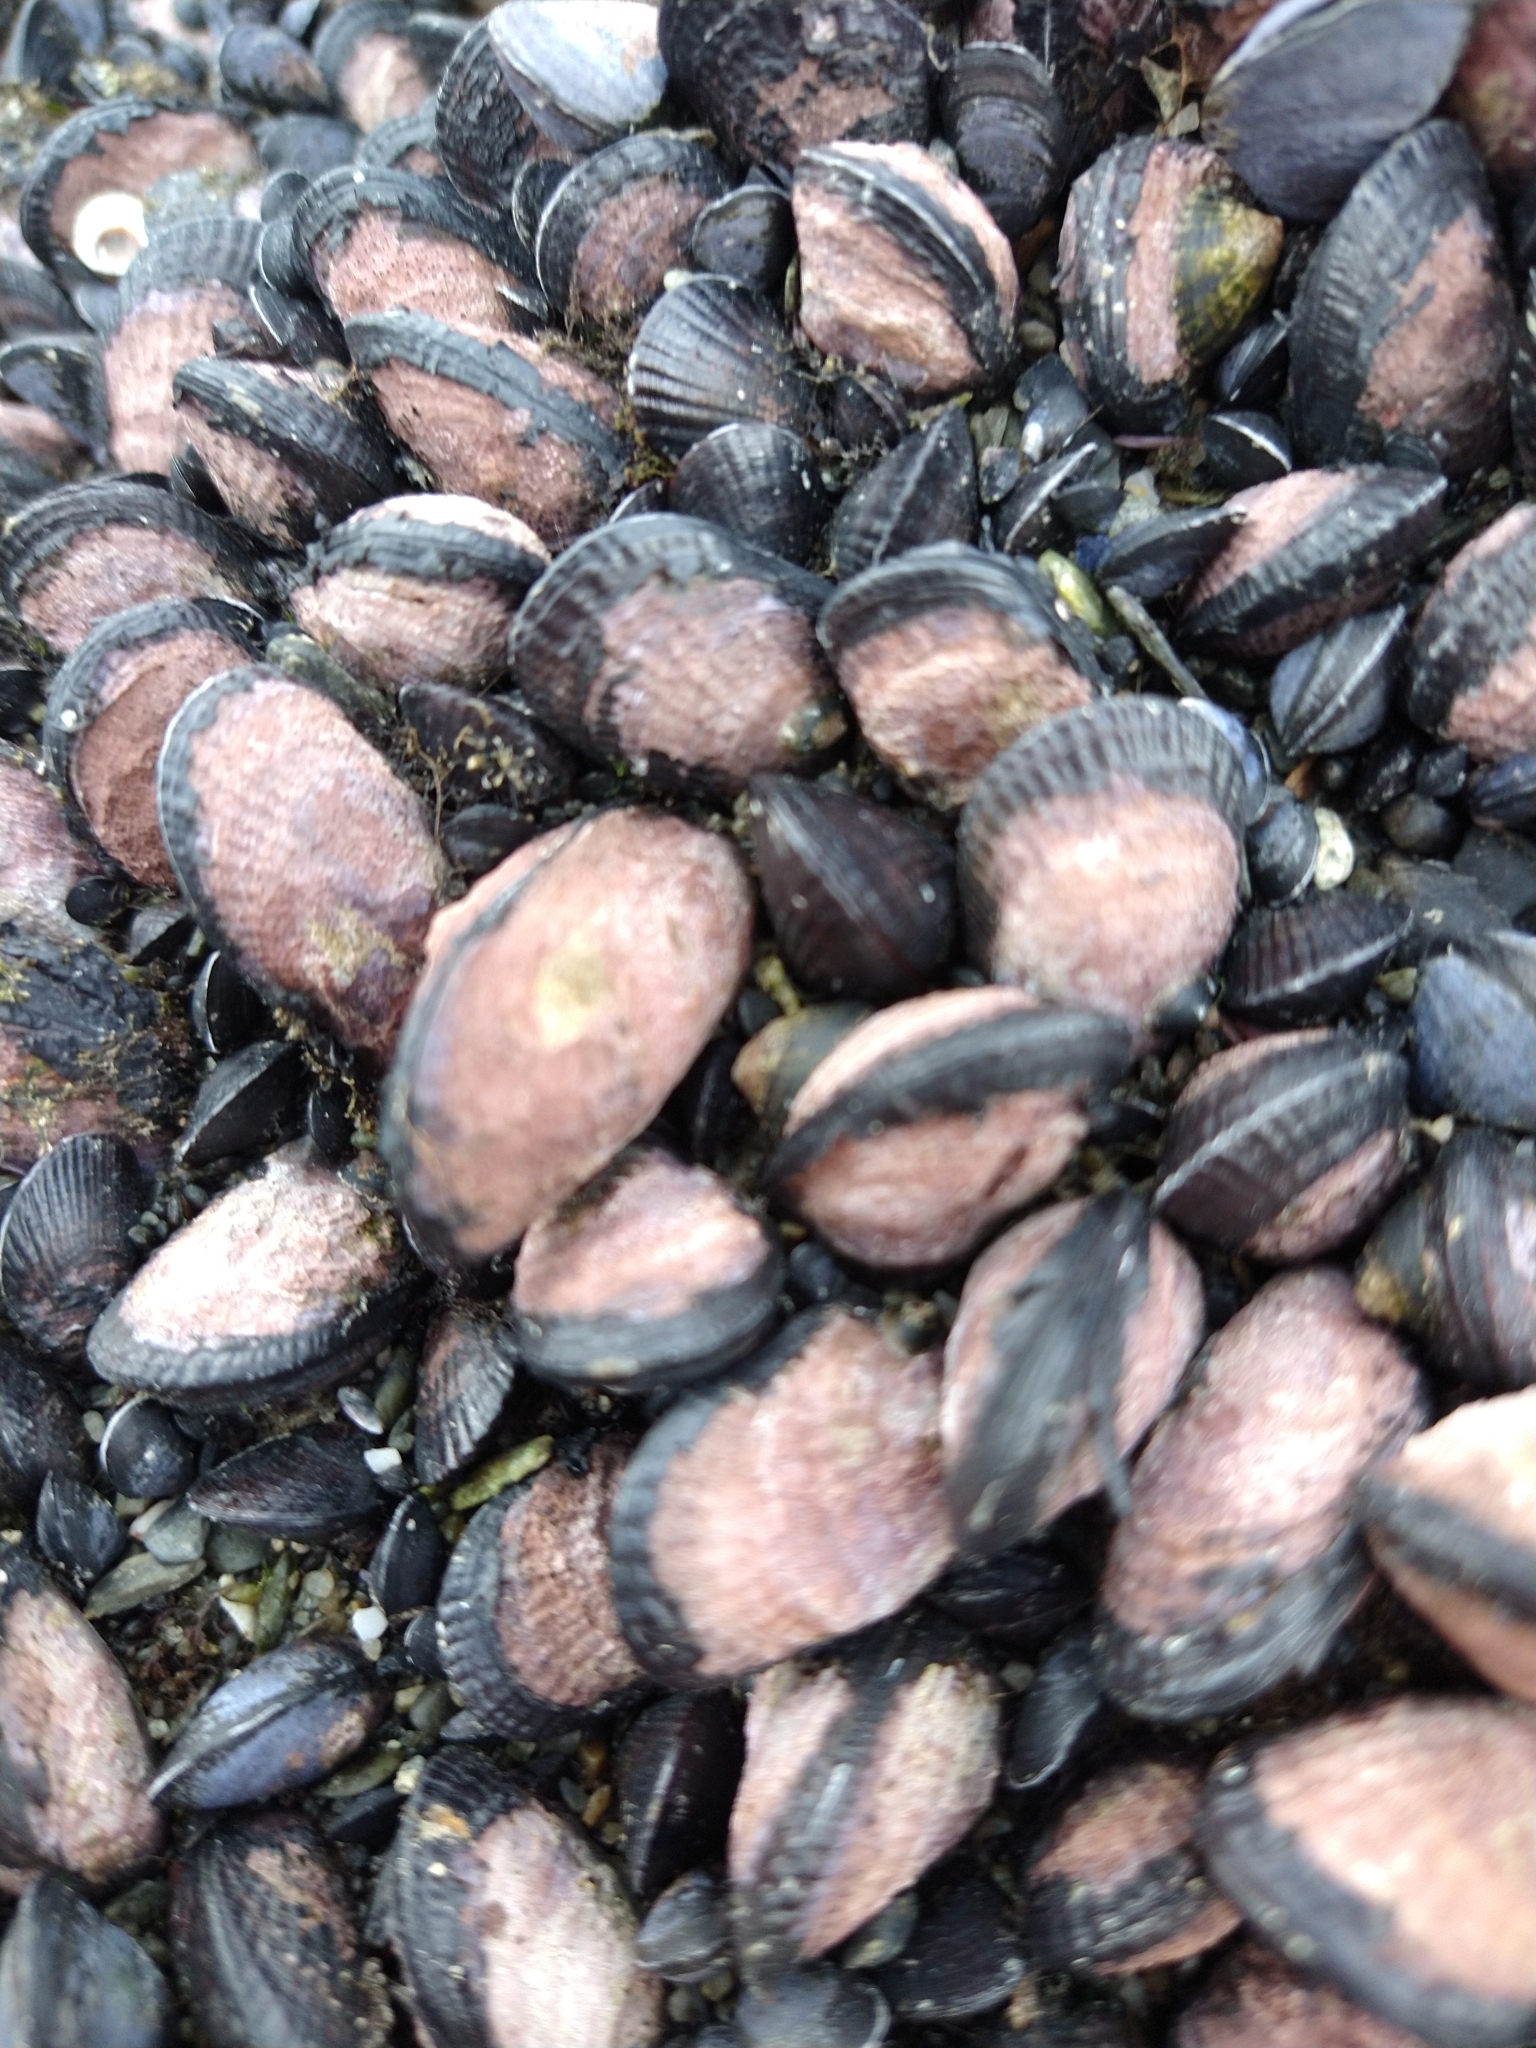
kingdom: Animalia
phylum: Mollusca
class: Bivalvia
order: Mytilida
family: Mytilidae
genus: Perumytilus
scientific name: Perumytilus purpuratus
